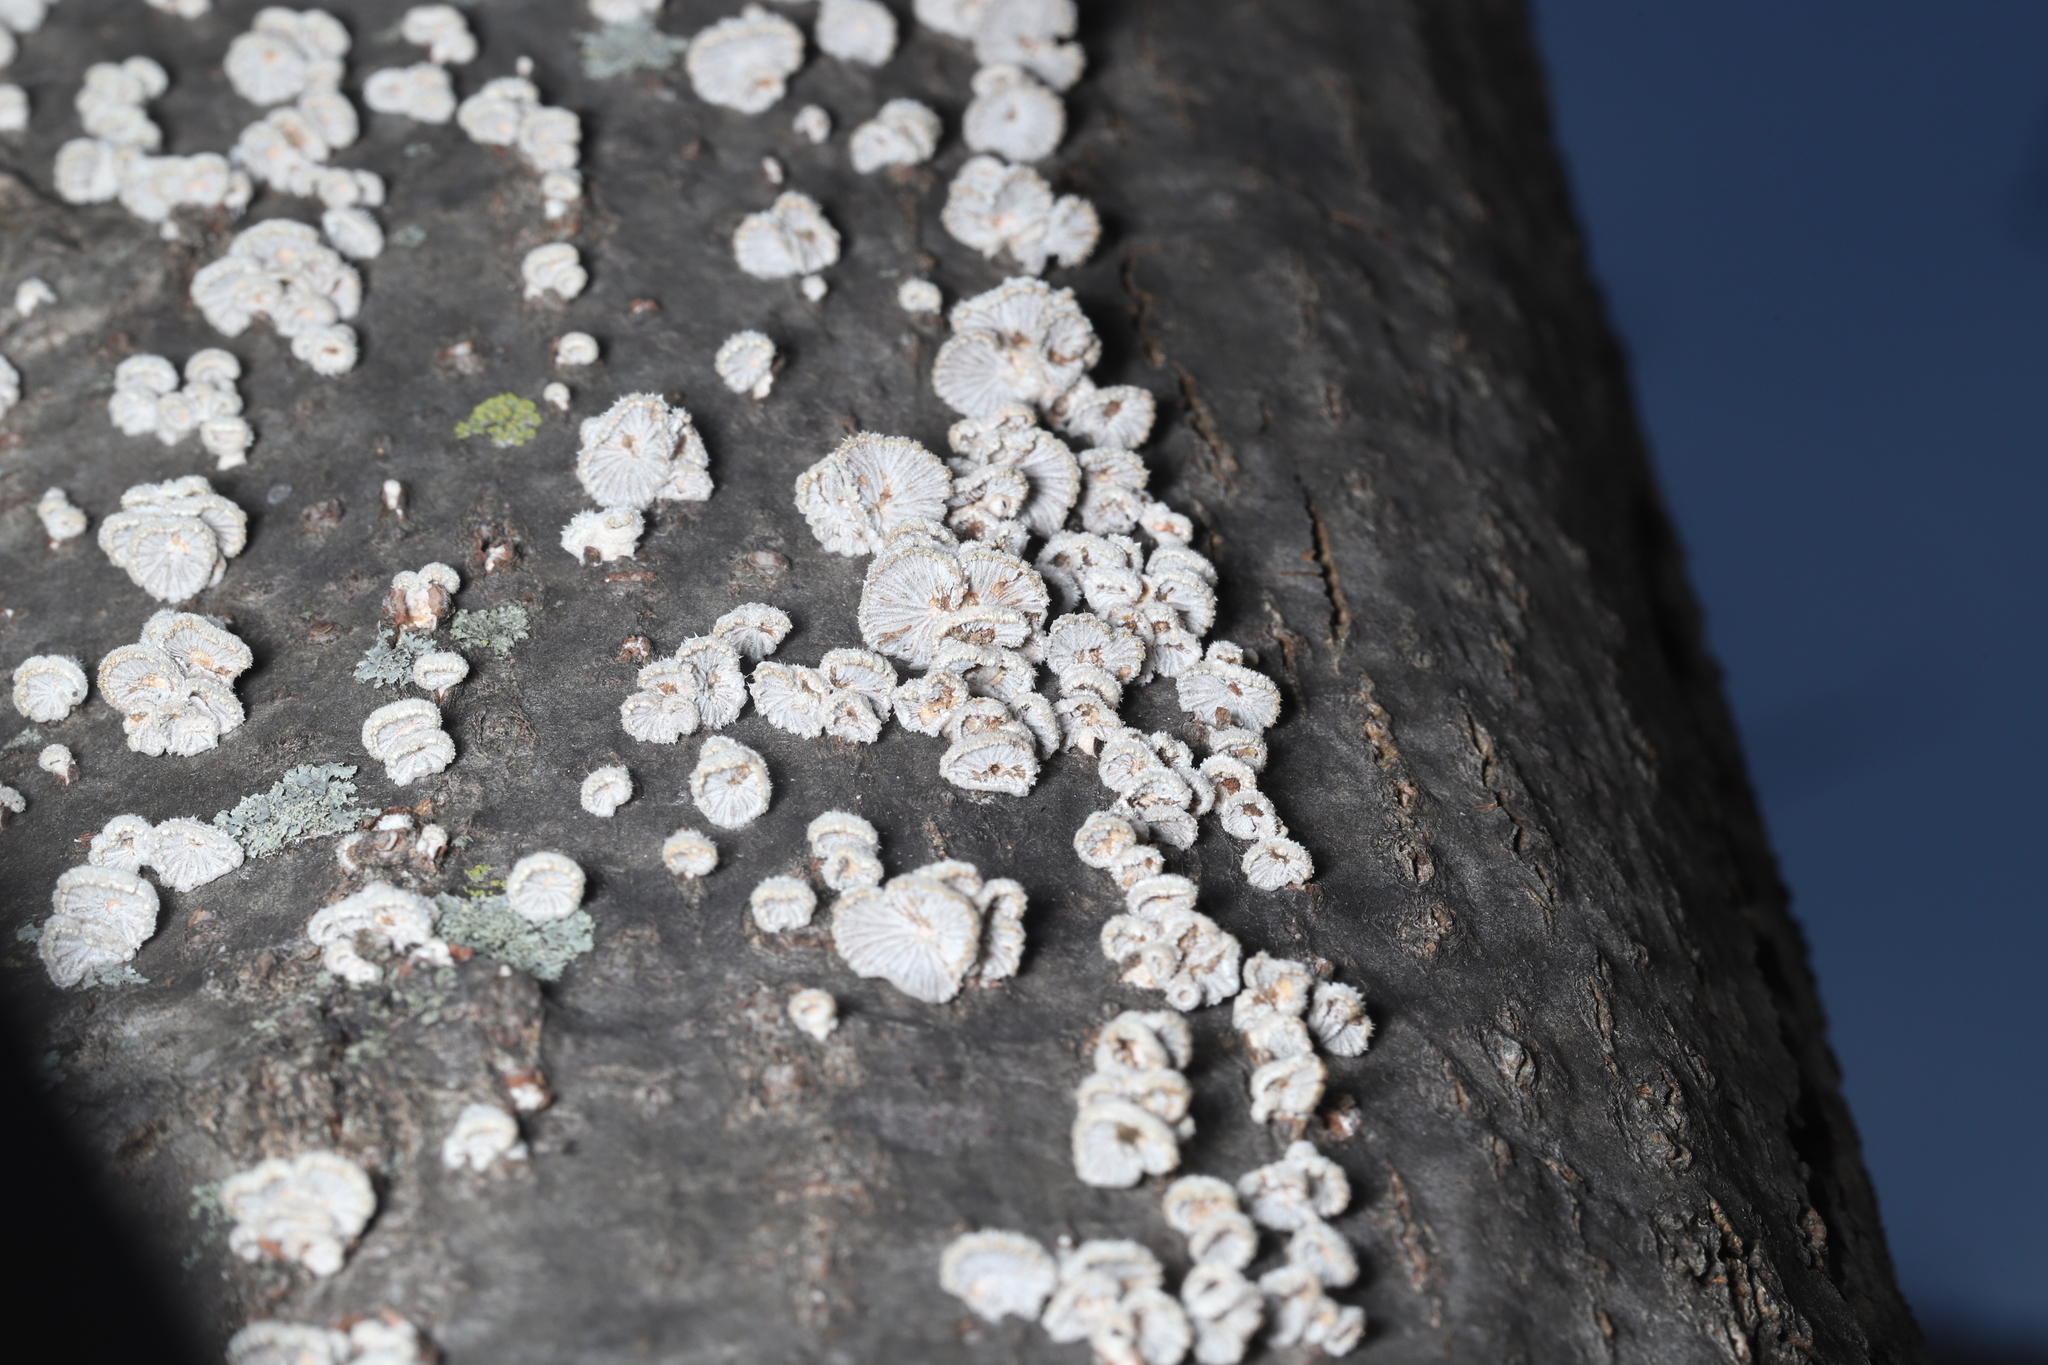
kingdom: Fungi
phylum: Basidiomycota
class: Agaricomycetes
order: Agaricales
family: Schizophyllaceae
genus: Schizophyllum
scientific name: Schizophyllum commune
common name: Common porecrust
